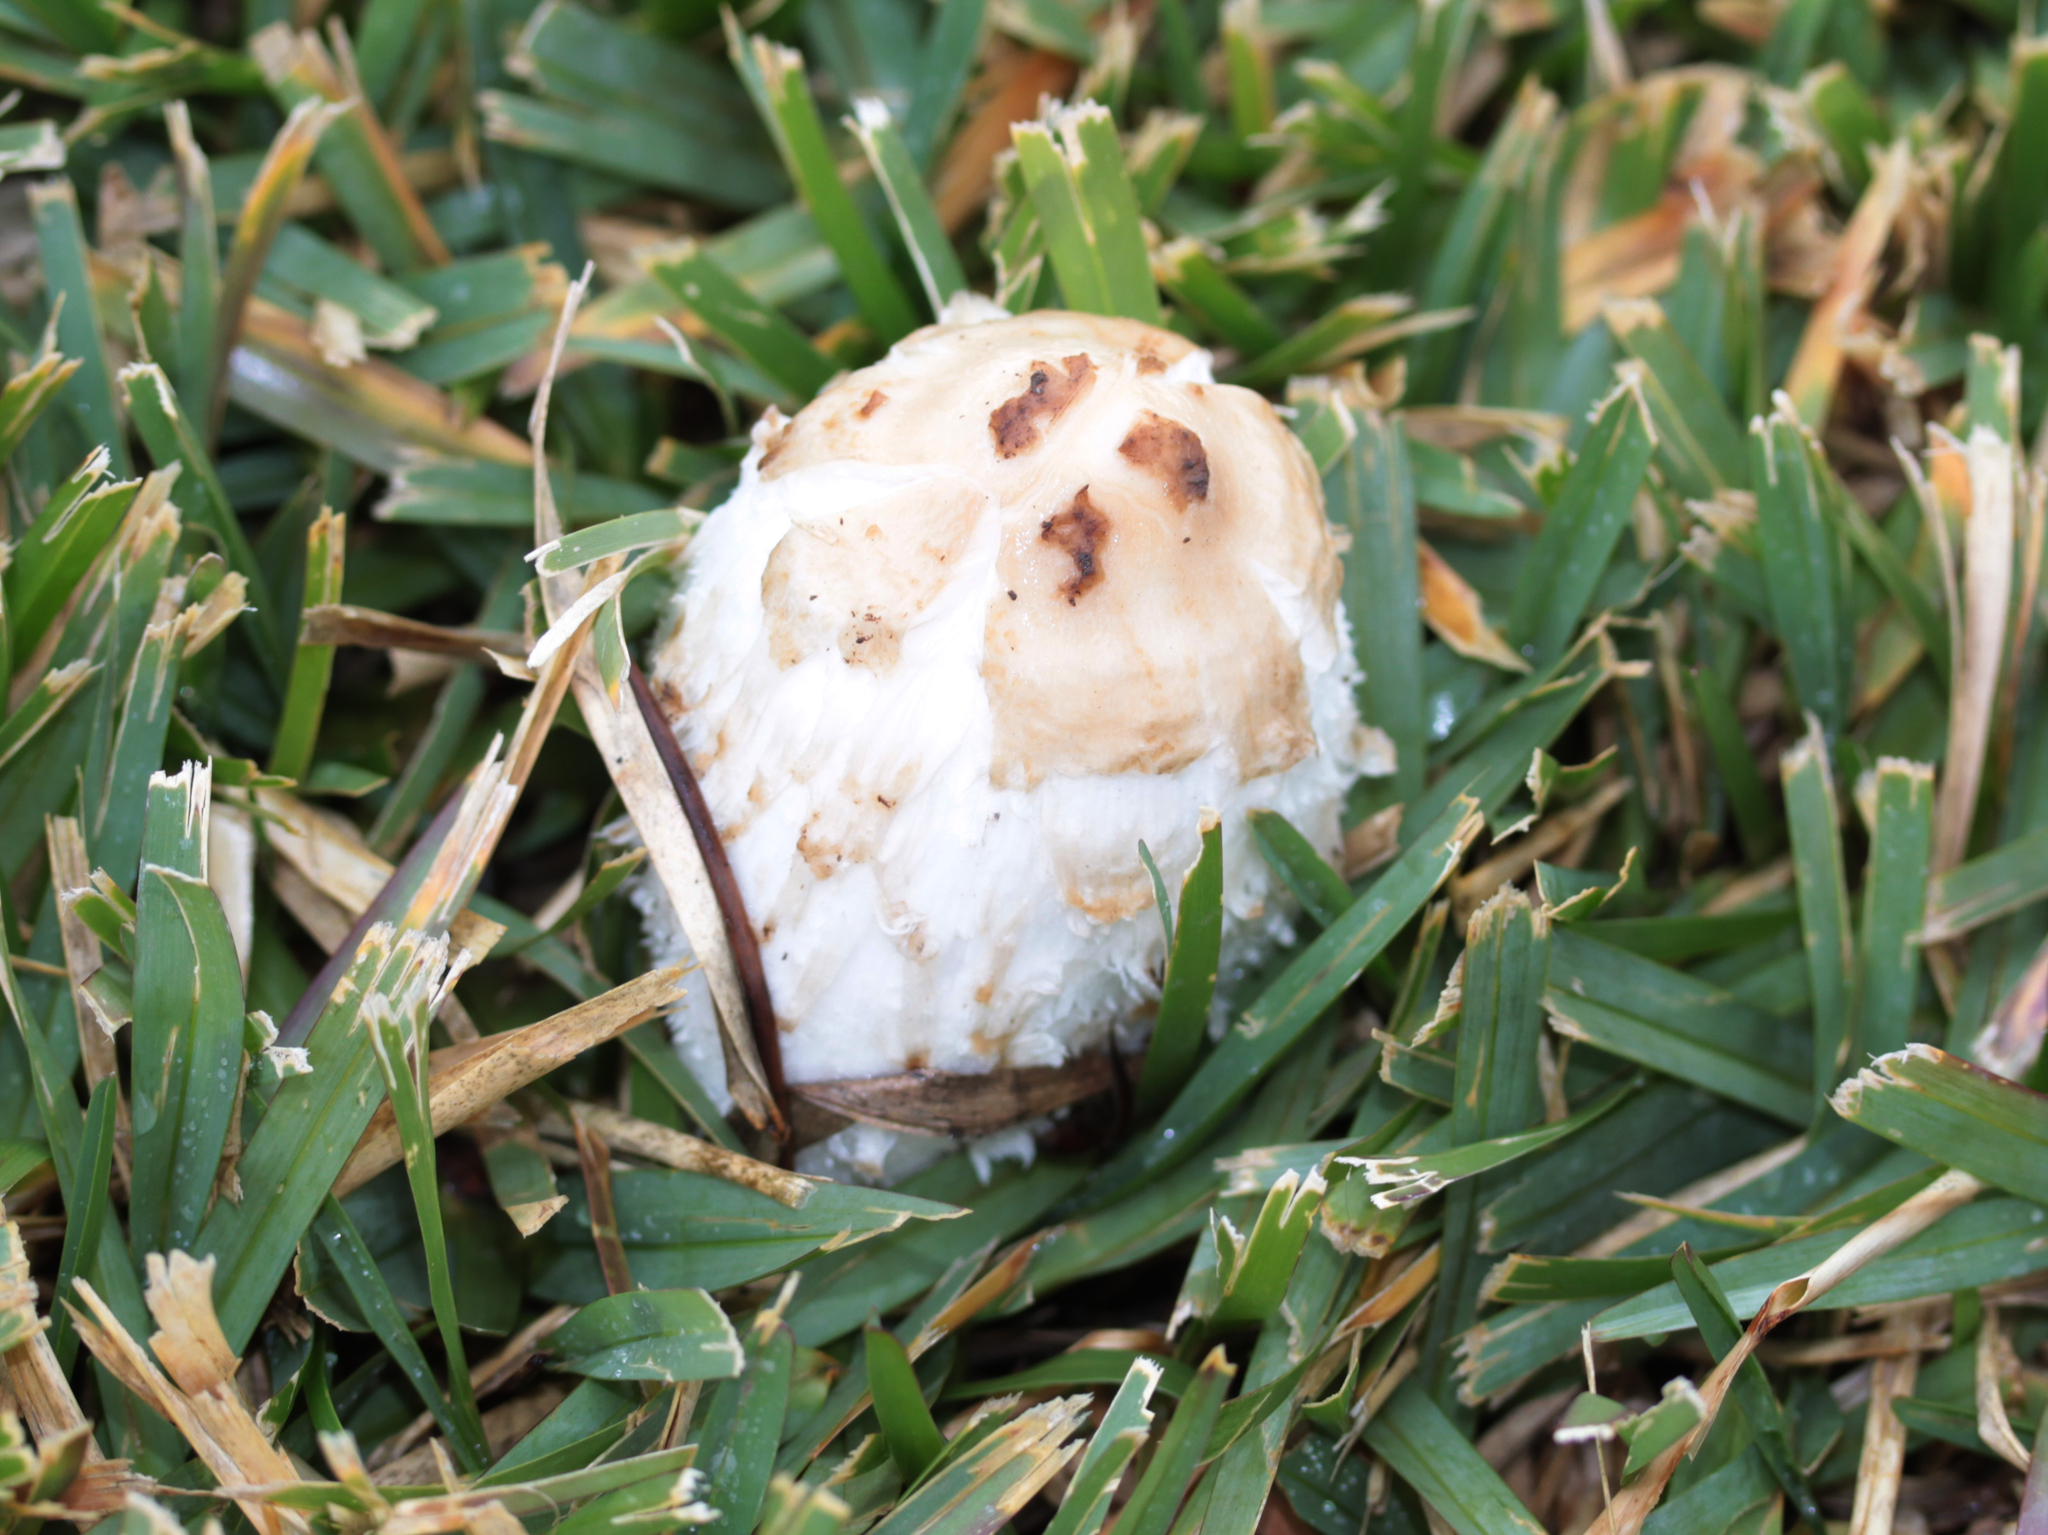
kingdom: Fungi
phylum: Basidiomycota
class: Agaricomycetes
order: Agaricales
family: Agaricaceae
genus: Coprinus
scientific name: Coprinus comatus
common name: Lawyer's wig
